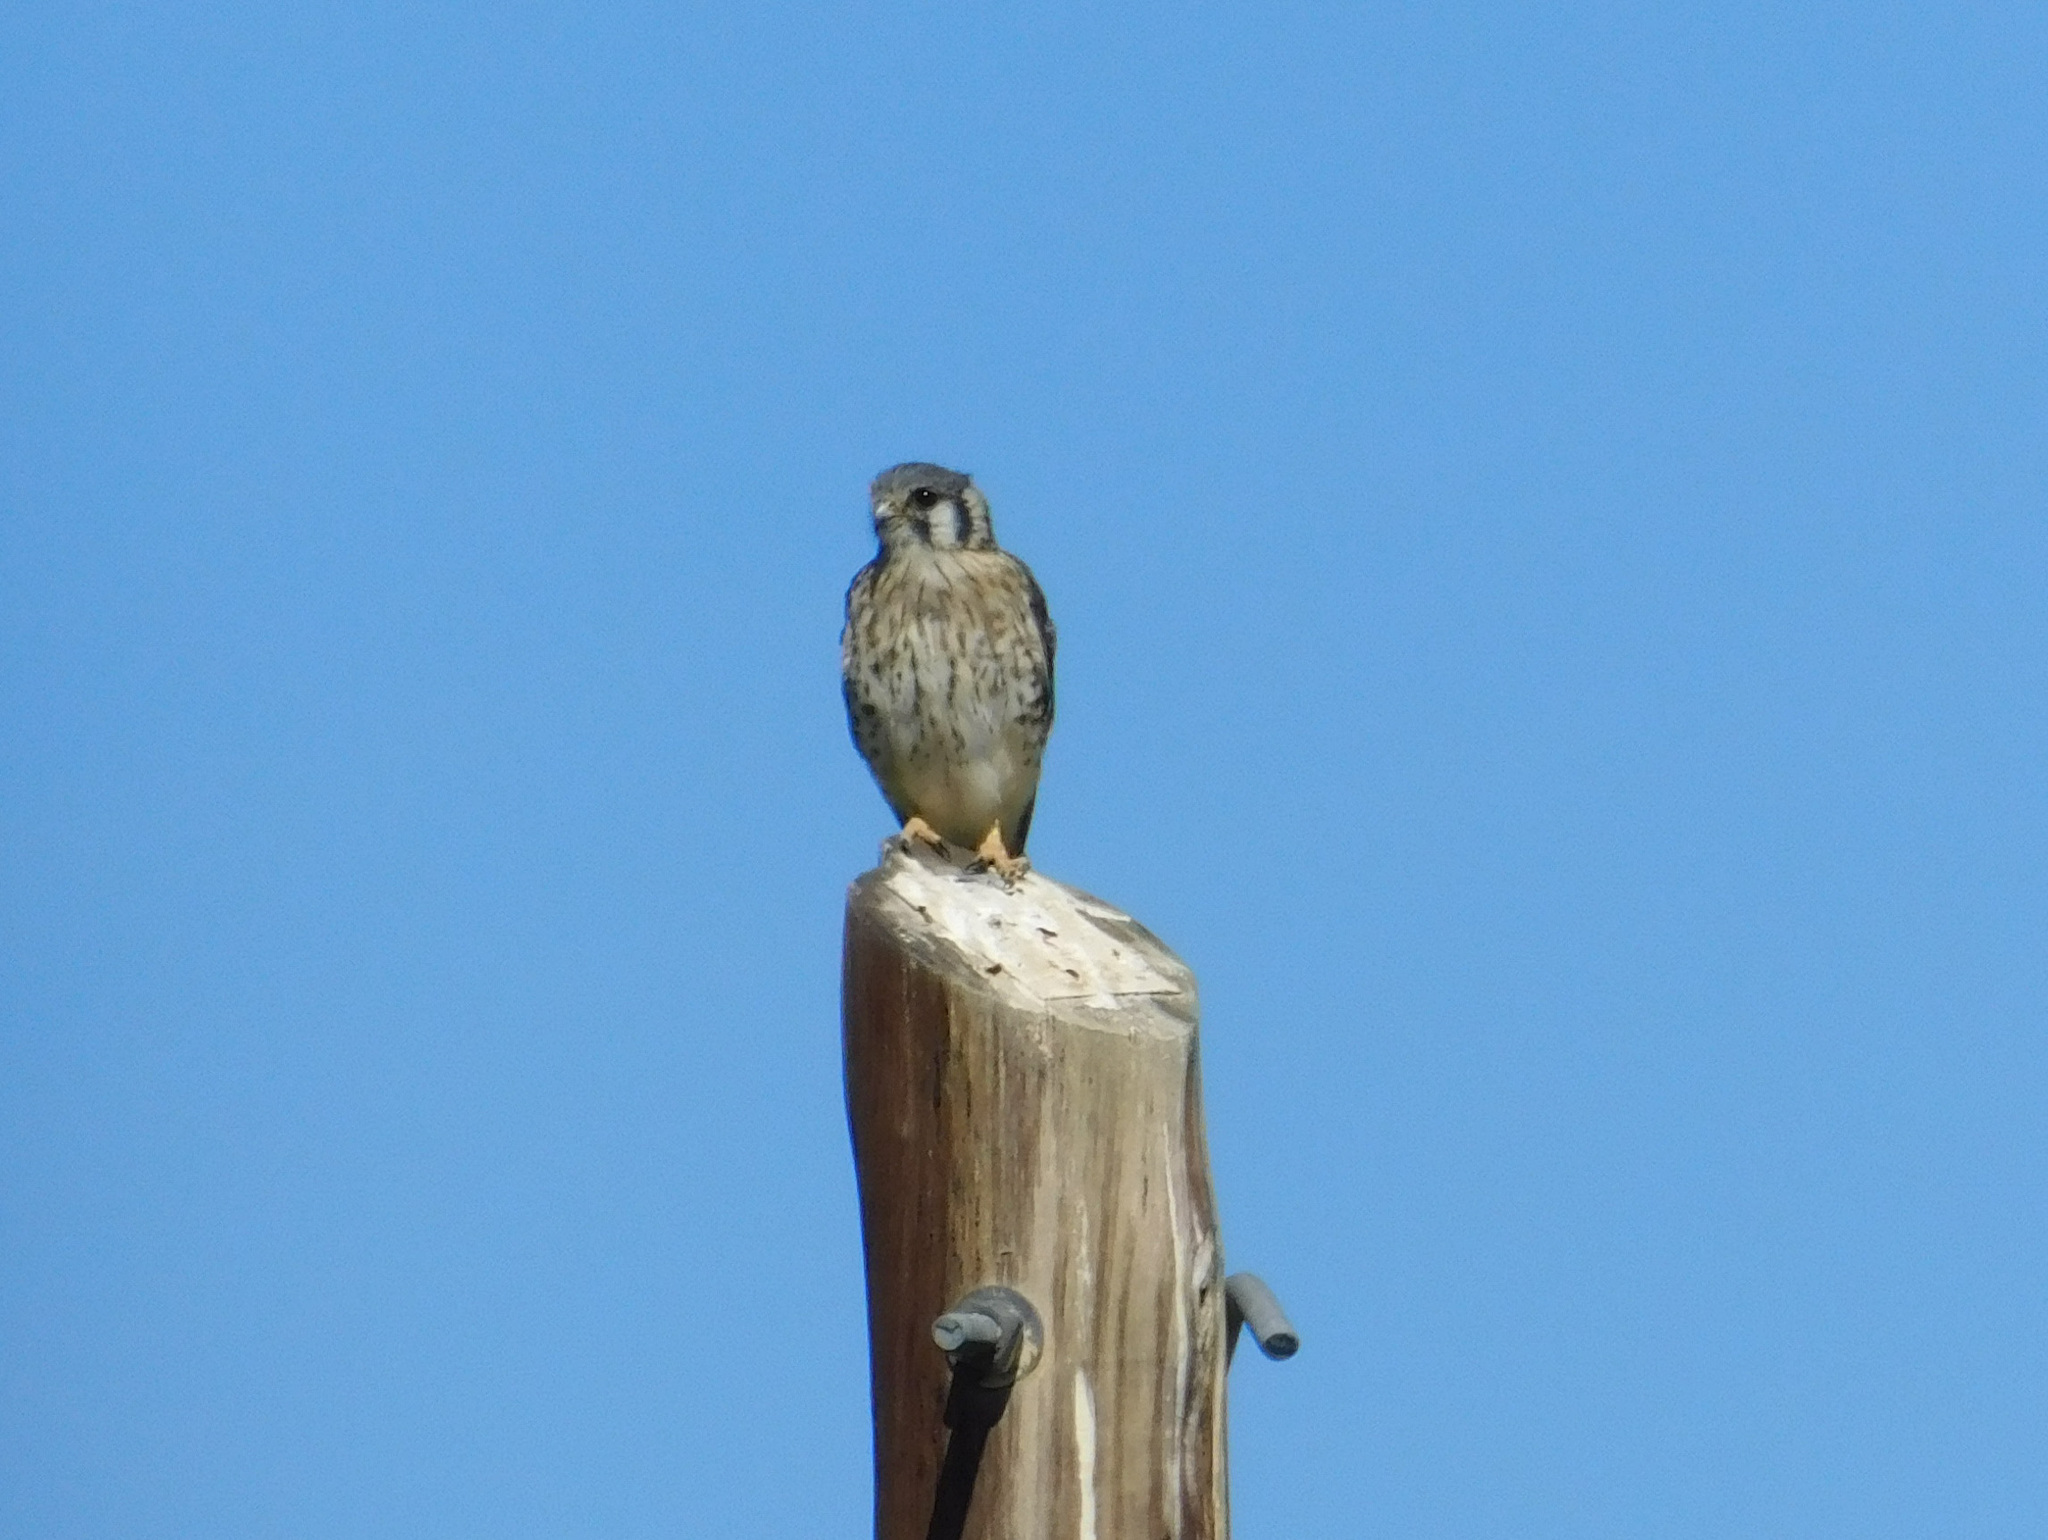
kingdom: Animalia
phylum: Chordata
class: Aves
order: Falconiformes
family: Falconidae
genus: Falco
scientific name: Falco sparverius
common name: American kestrel
